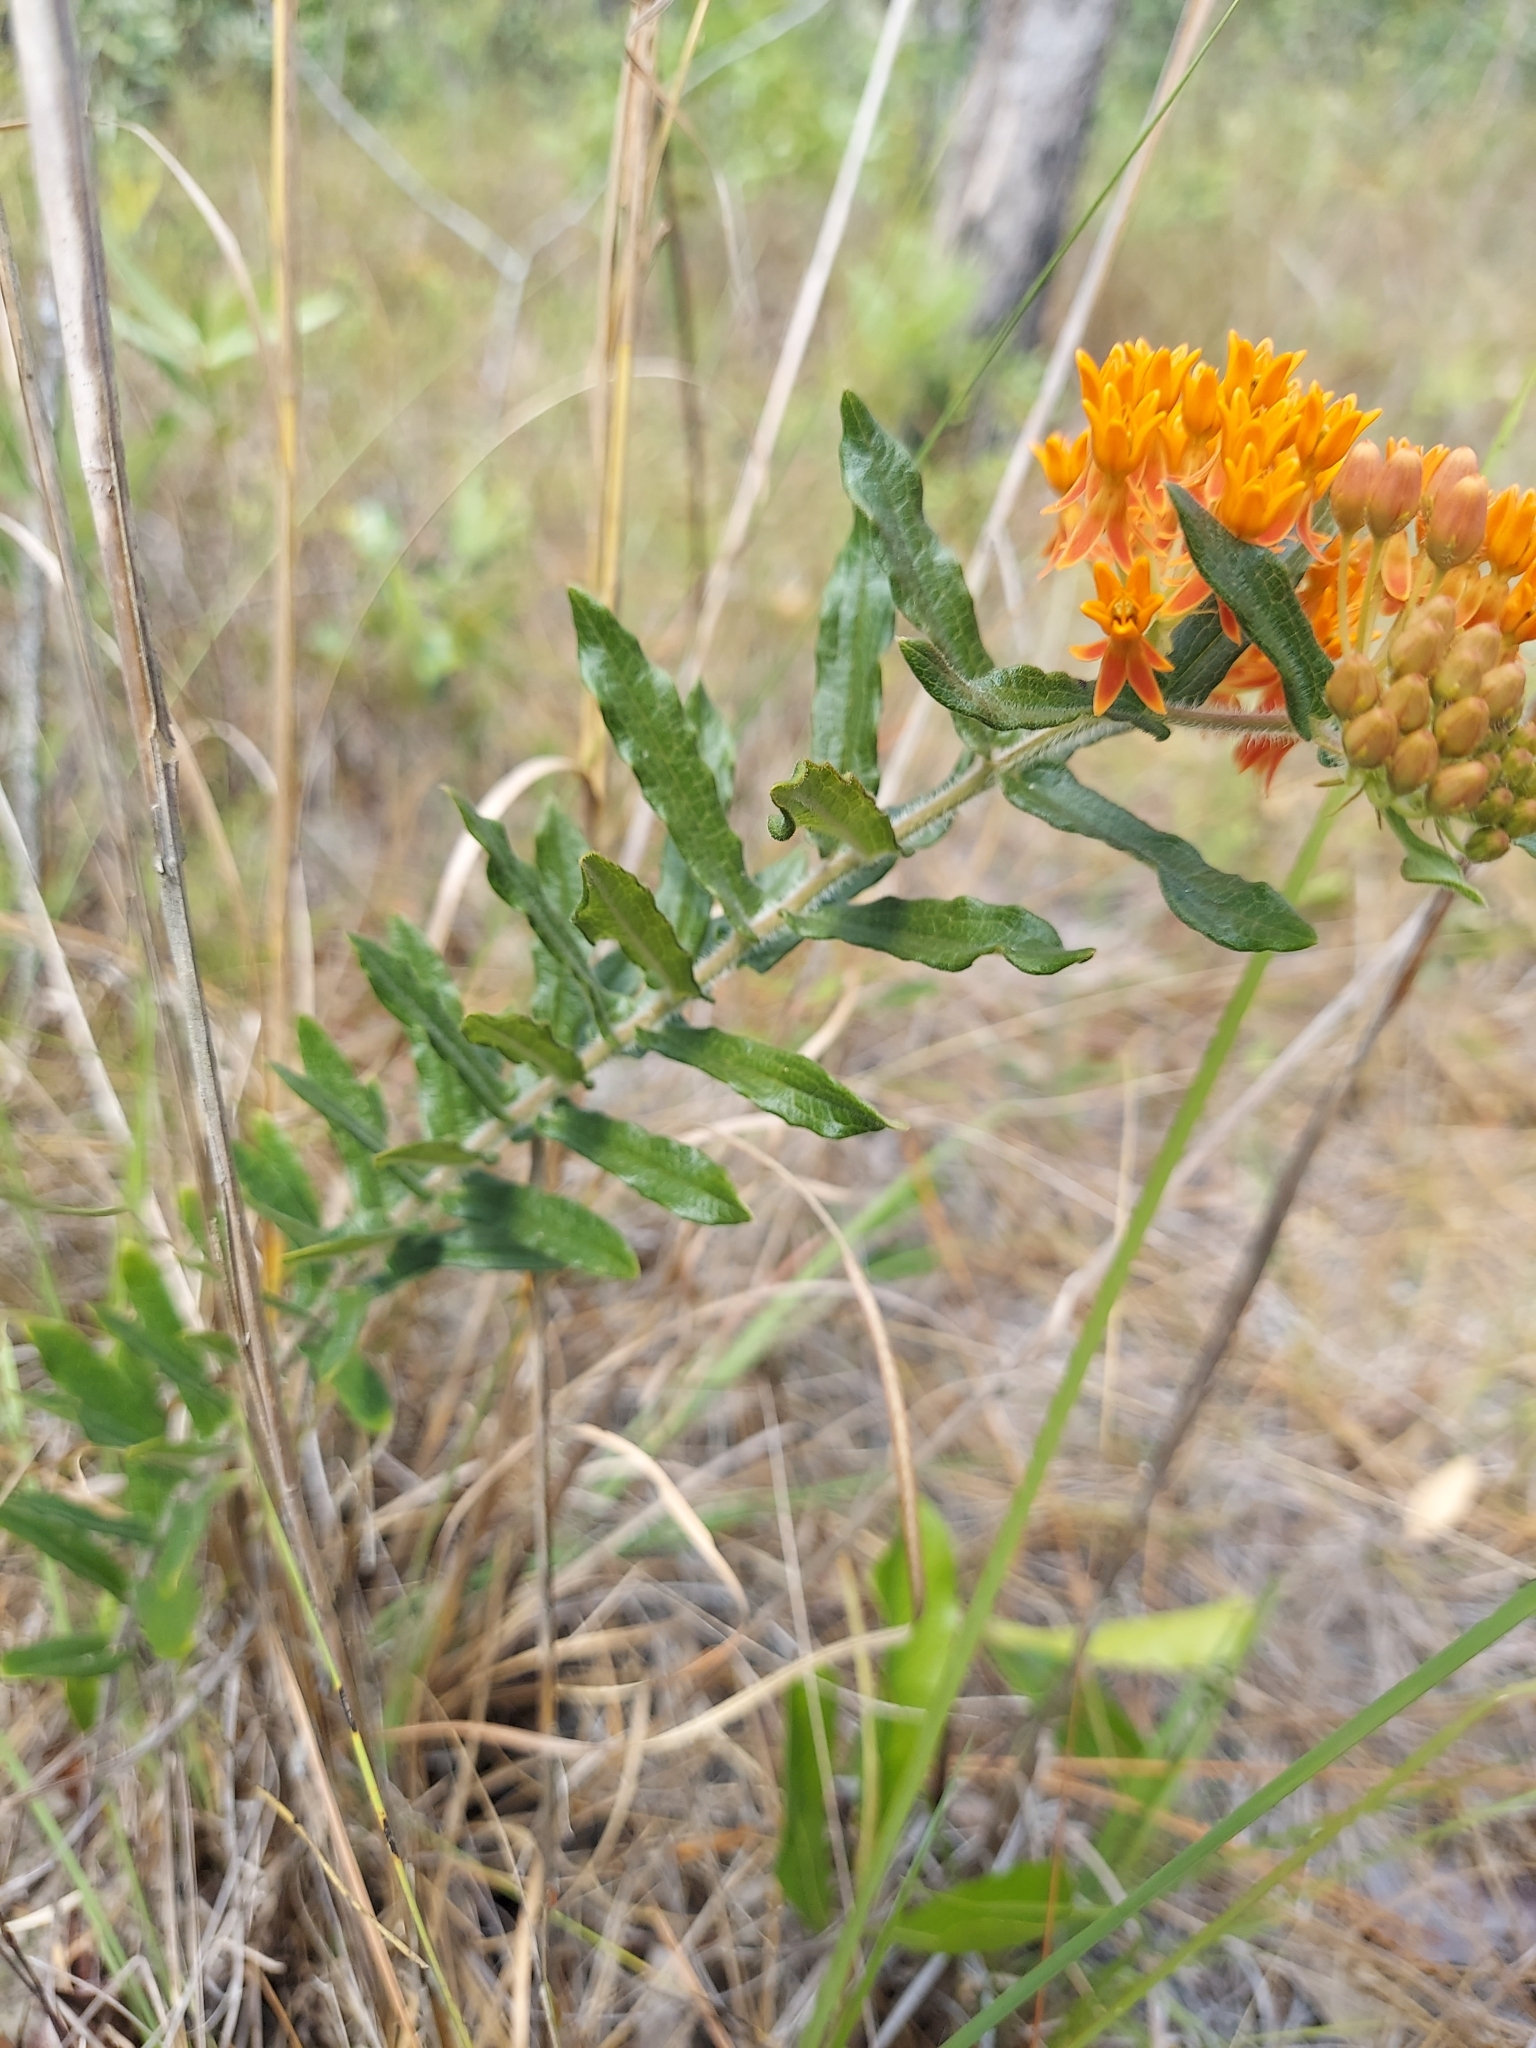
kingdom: Plantae
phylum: Tracheophyta
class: Magnoliopsida
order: Gentianales
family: Apocynaceae
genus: Asclepias
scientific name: Asclepias tuberosa
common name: Butterfly milkweed
